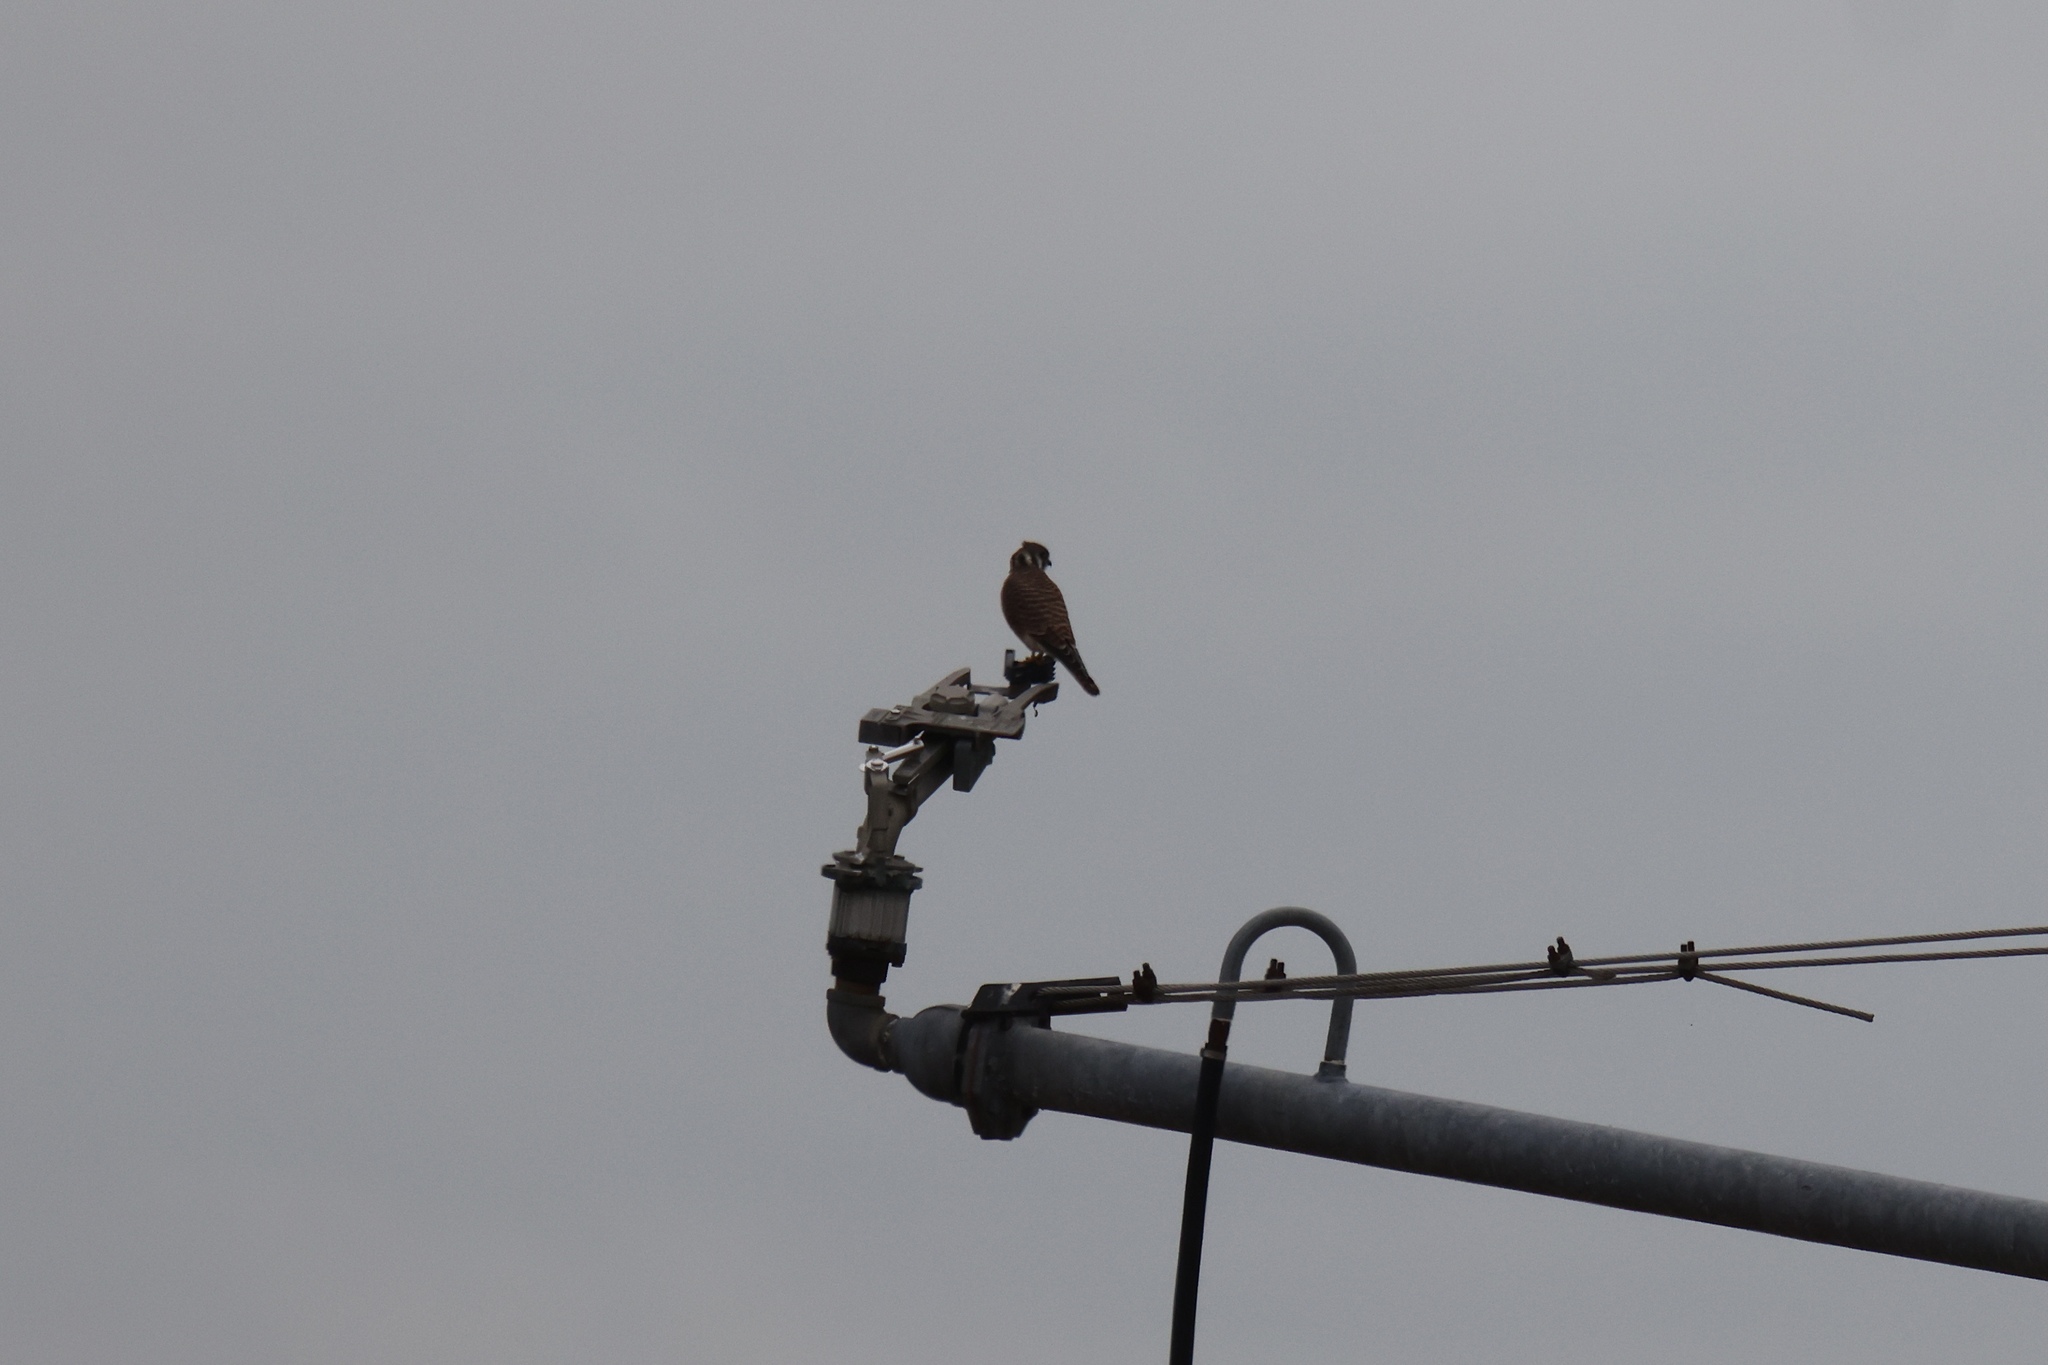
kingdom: Animalia
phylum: Chordata
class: Aves
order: Falconiformes
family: Falconidae
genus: Falco
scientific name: Falco sparverius
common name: American kestrel
